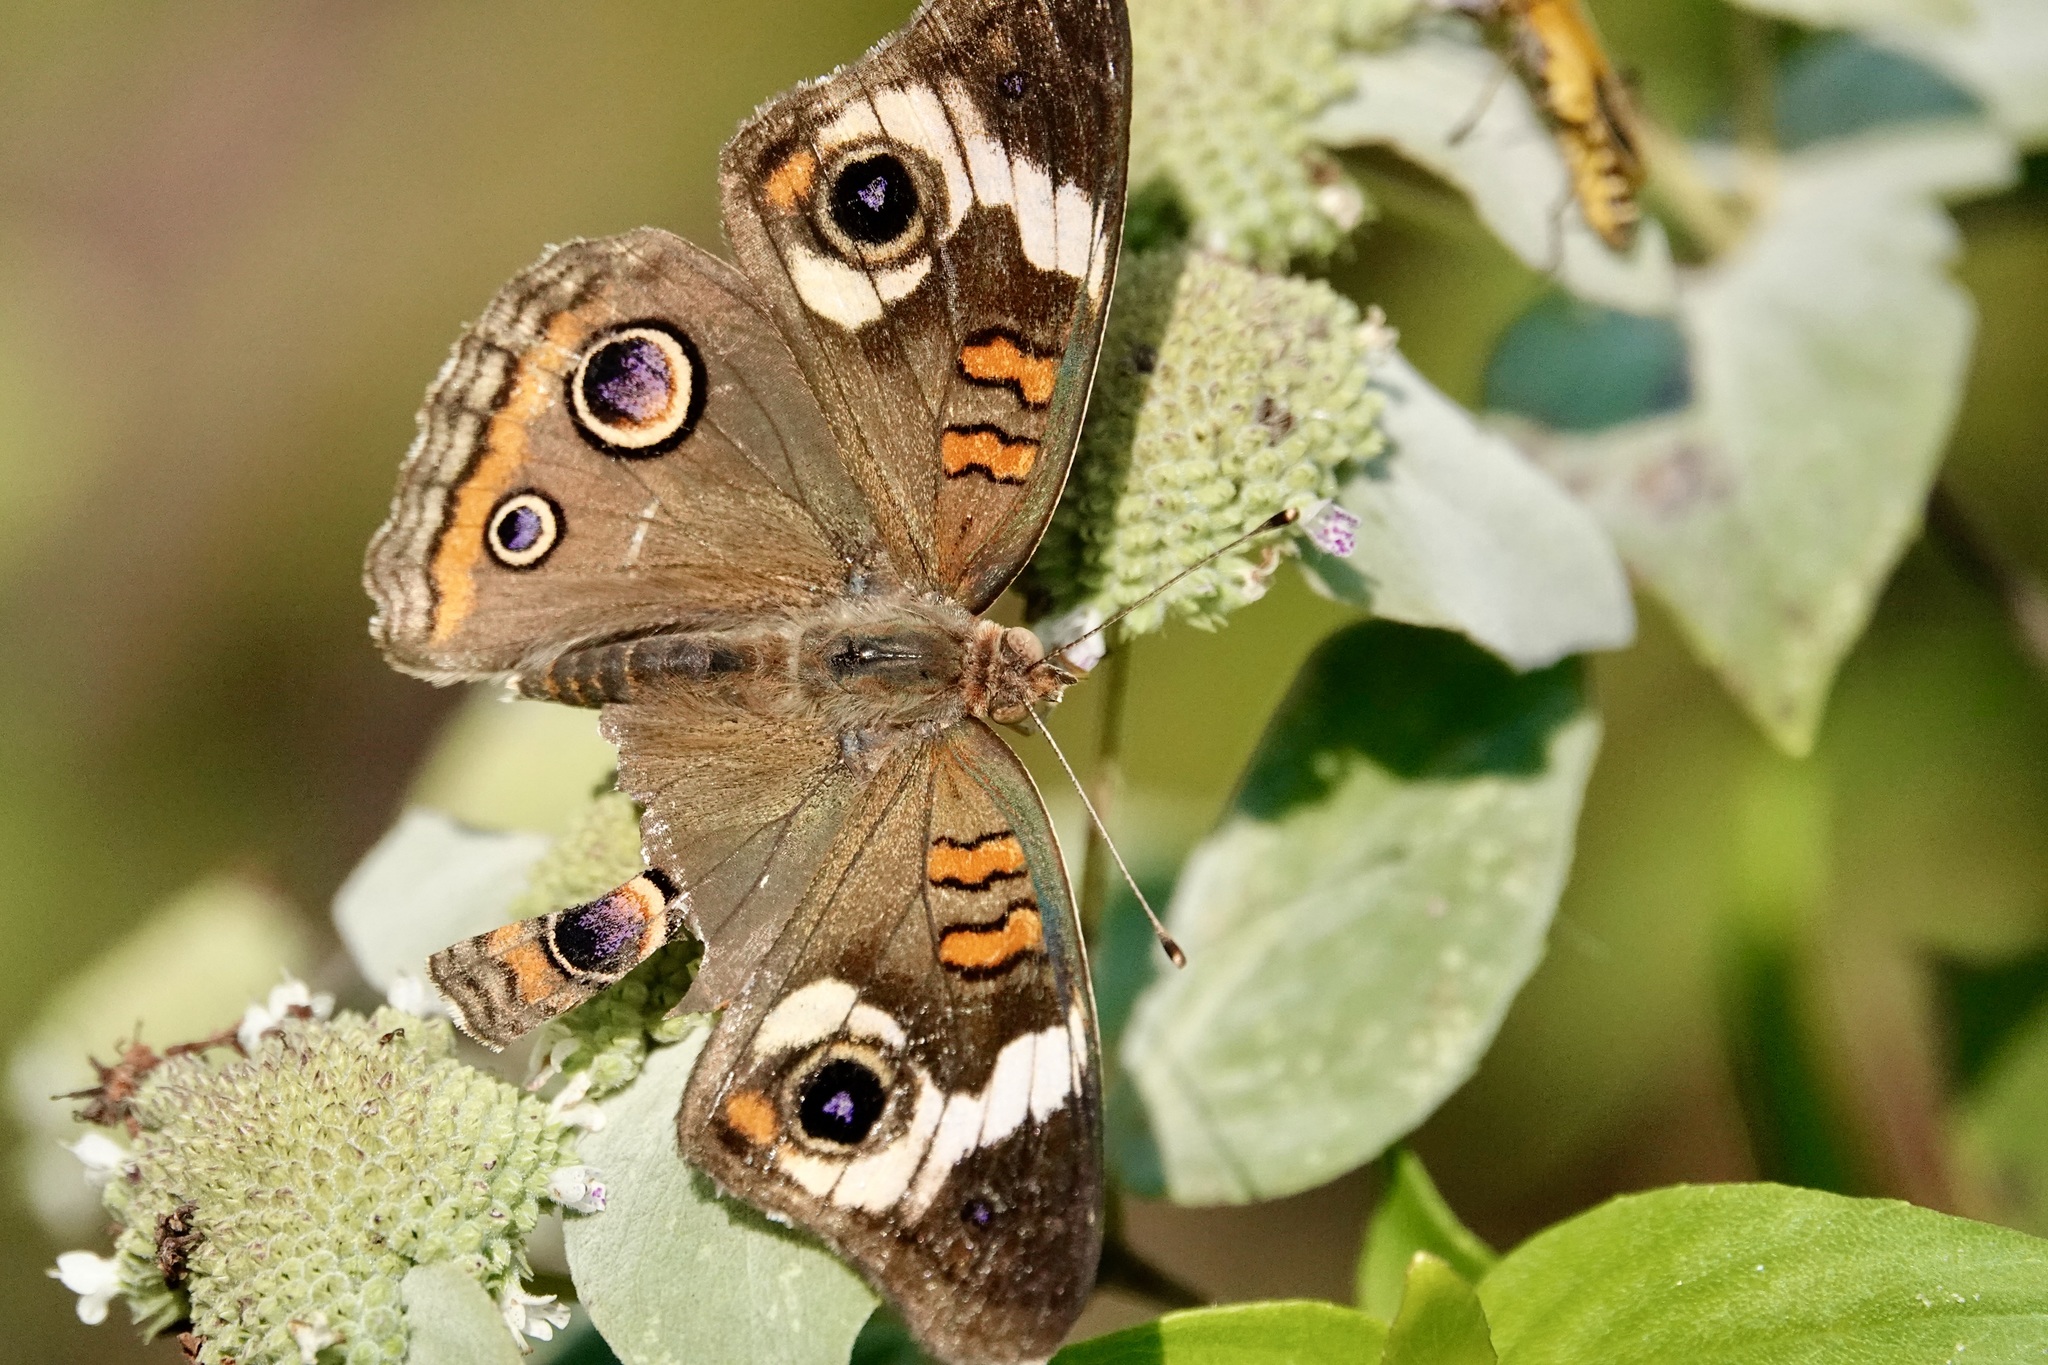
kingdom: Animalia
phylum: Arthropoda
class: Insecta
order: Lepidoptera
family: Nymphalidae
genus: Junonia
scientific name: Junonia coenia
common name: Common buckeye
